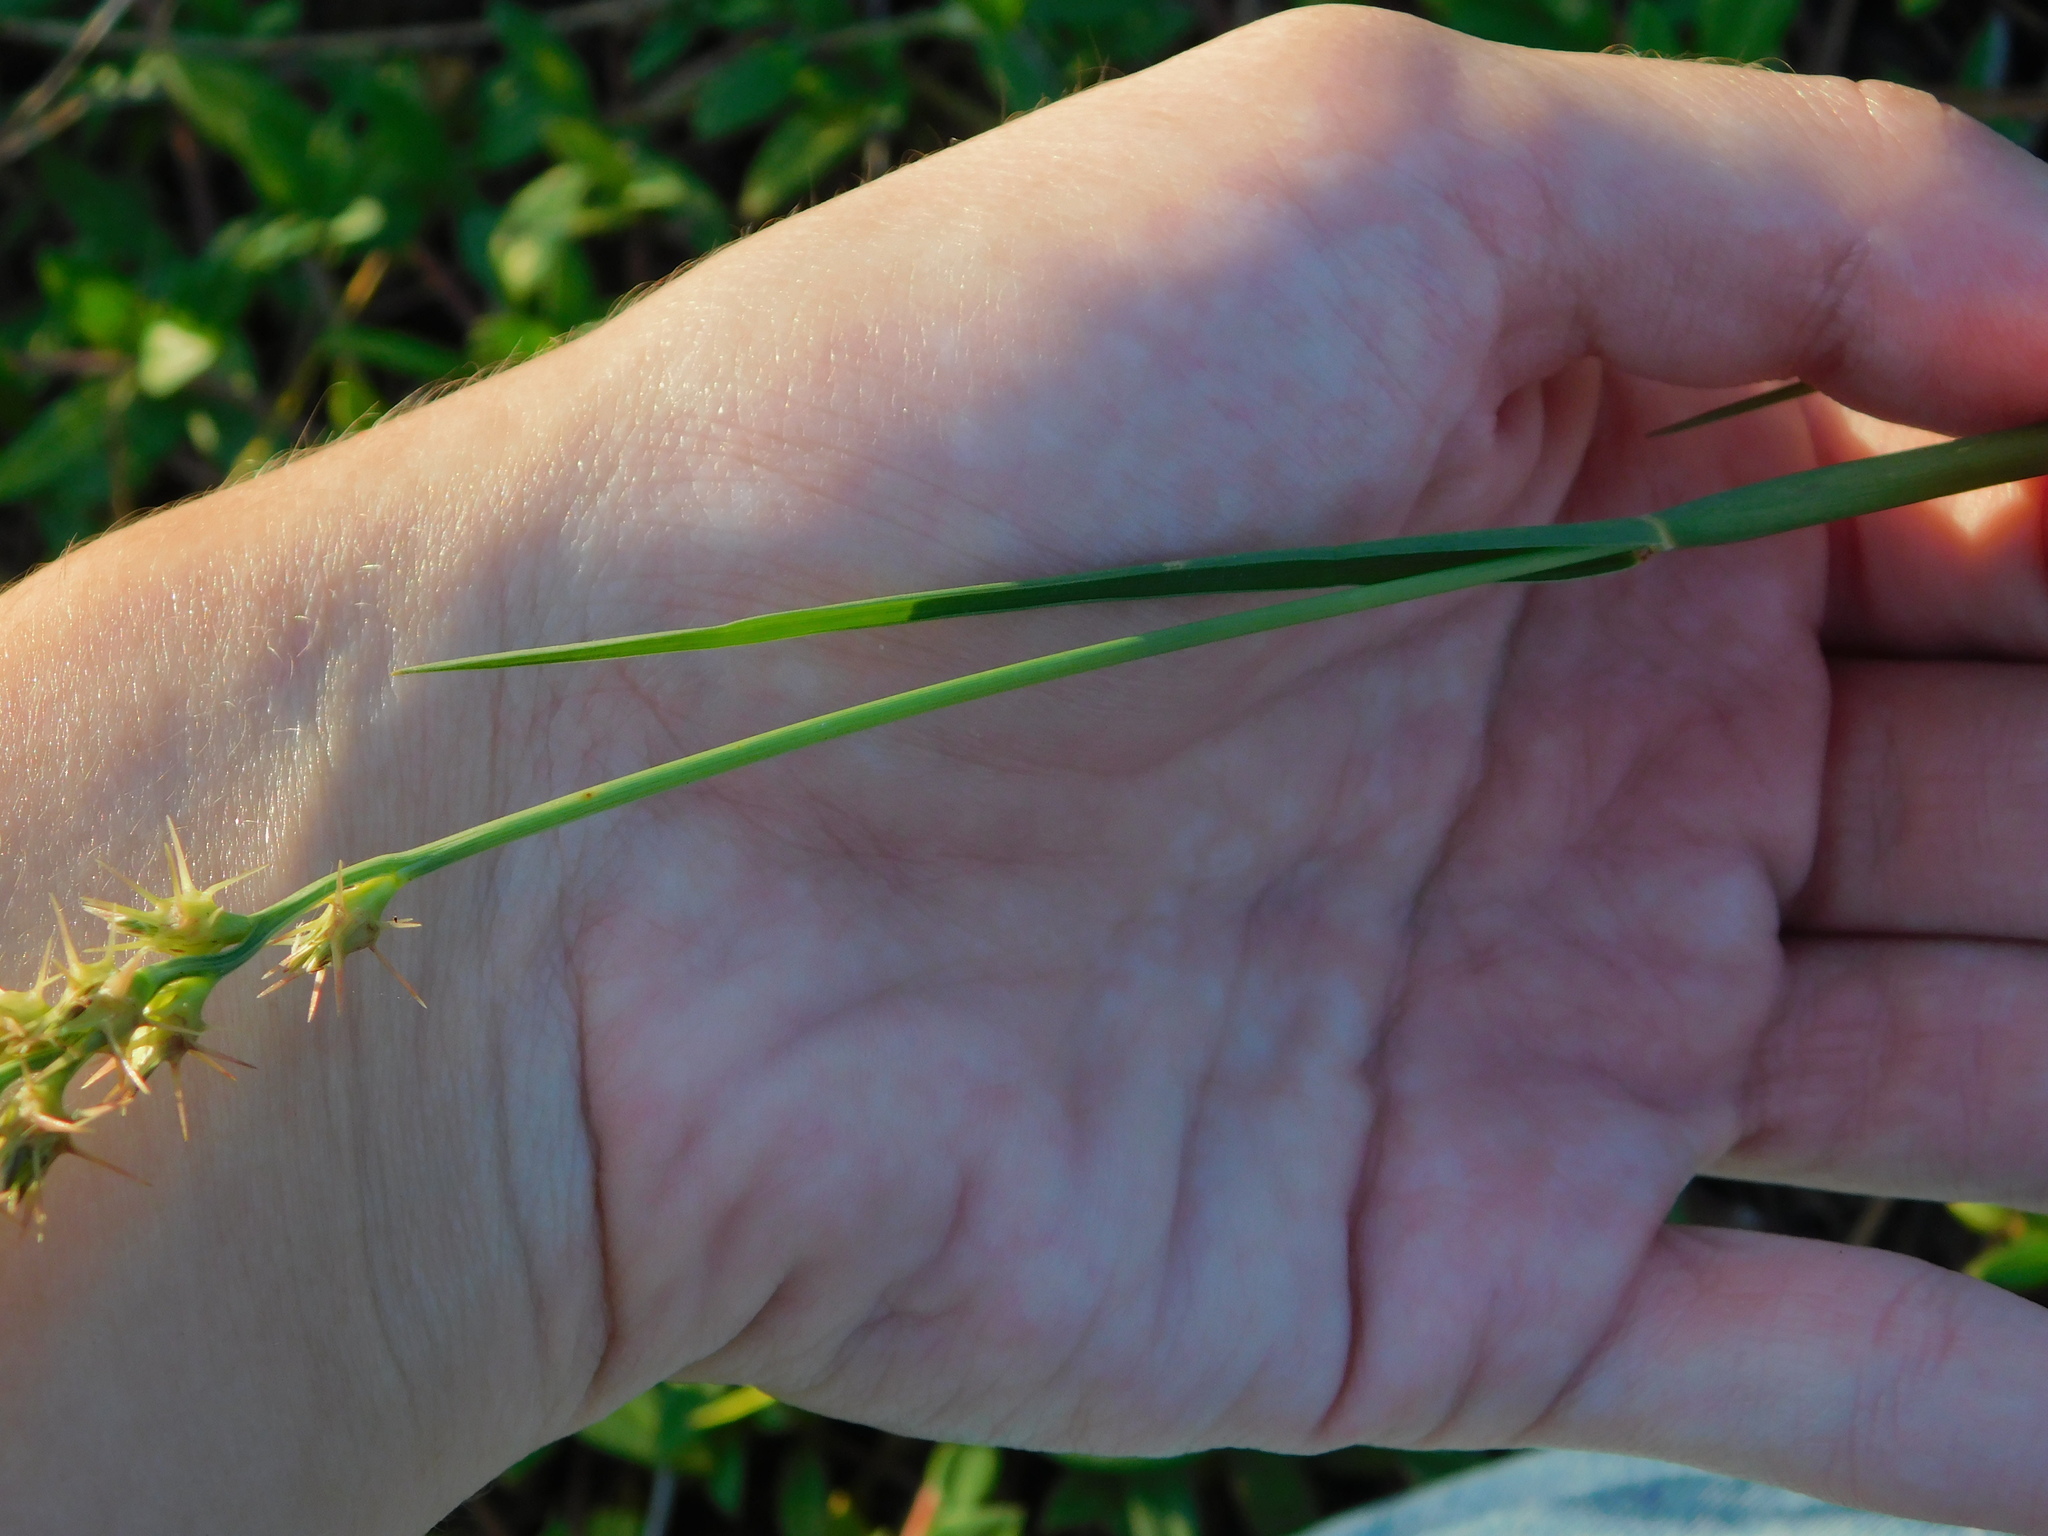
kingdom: Plantae
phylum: Tracheophyta
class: Liliopsida
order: Poales
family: Poaceae
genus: Cenchrus
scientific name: Cenchrus gracillimus
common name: Slender sandbur
